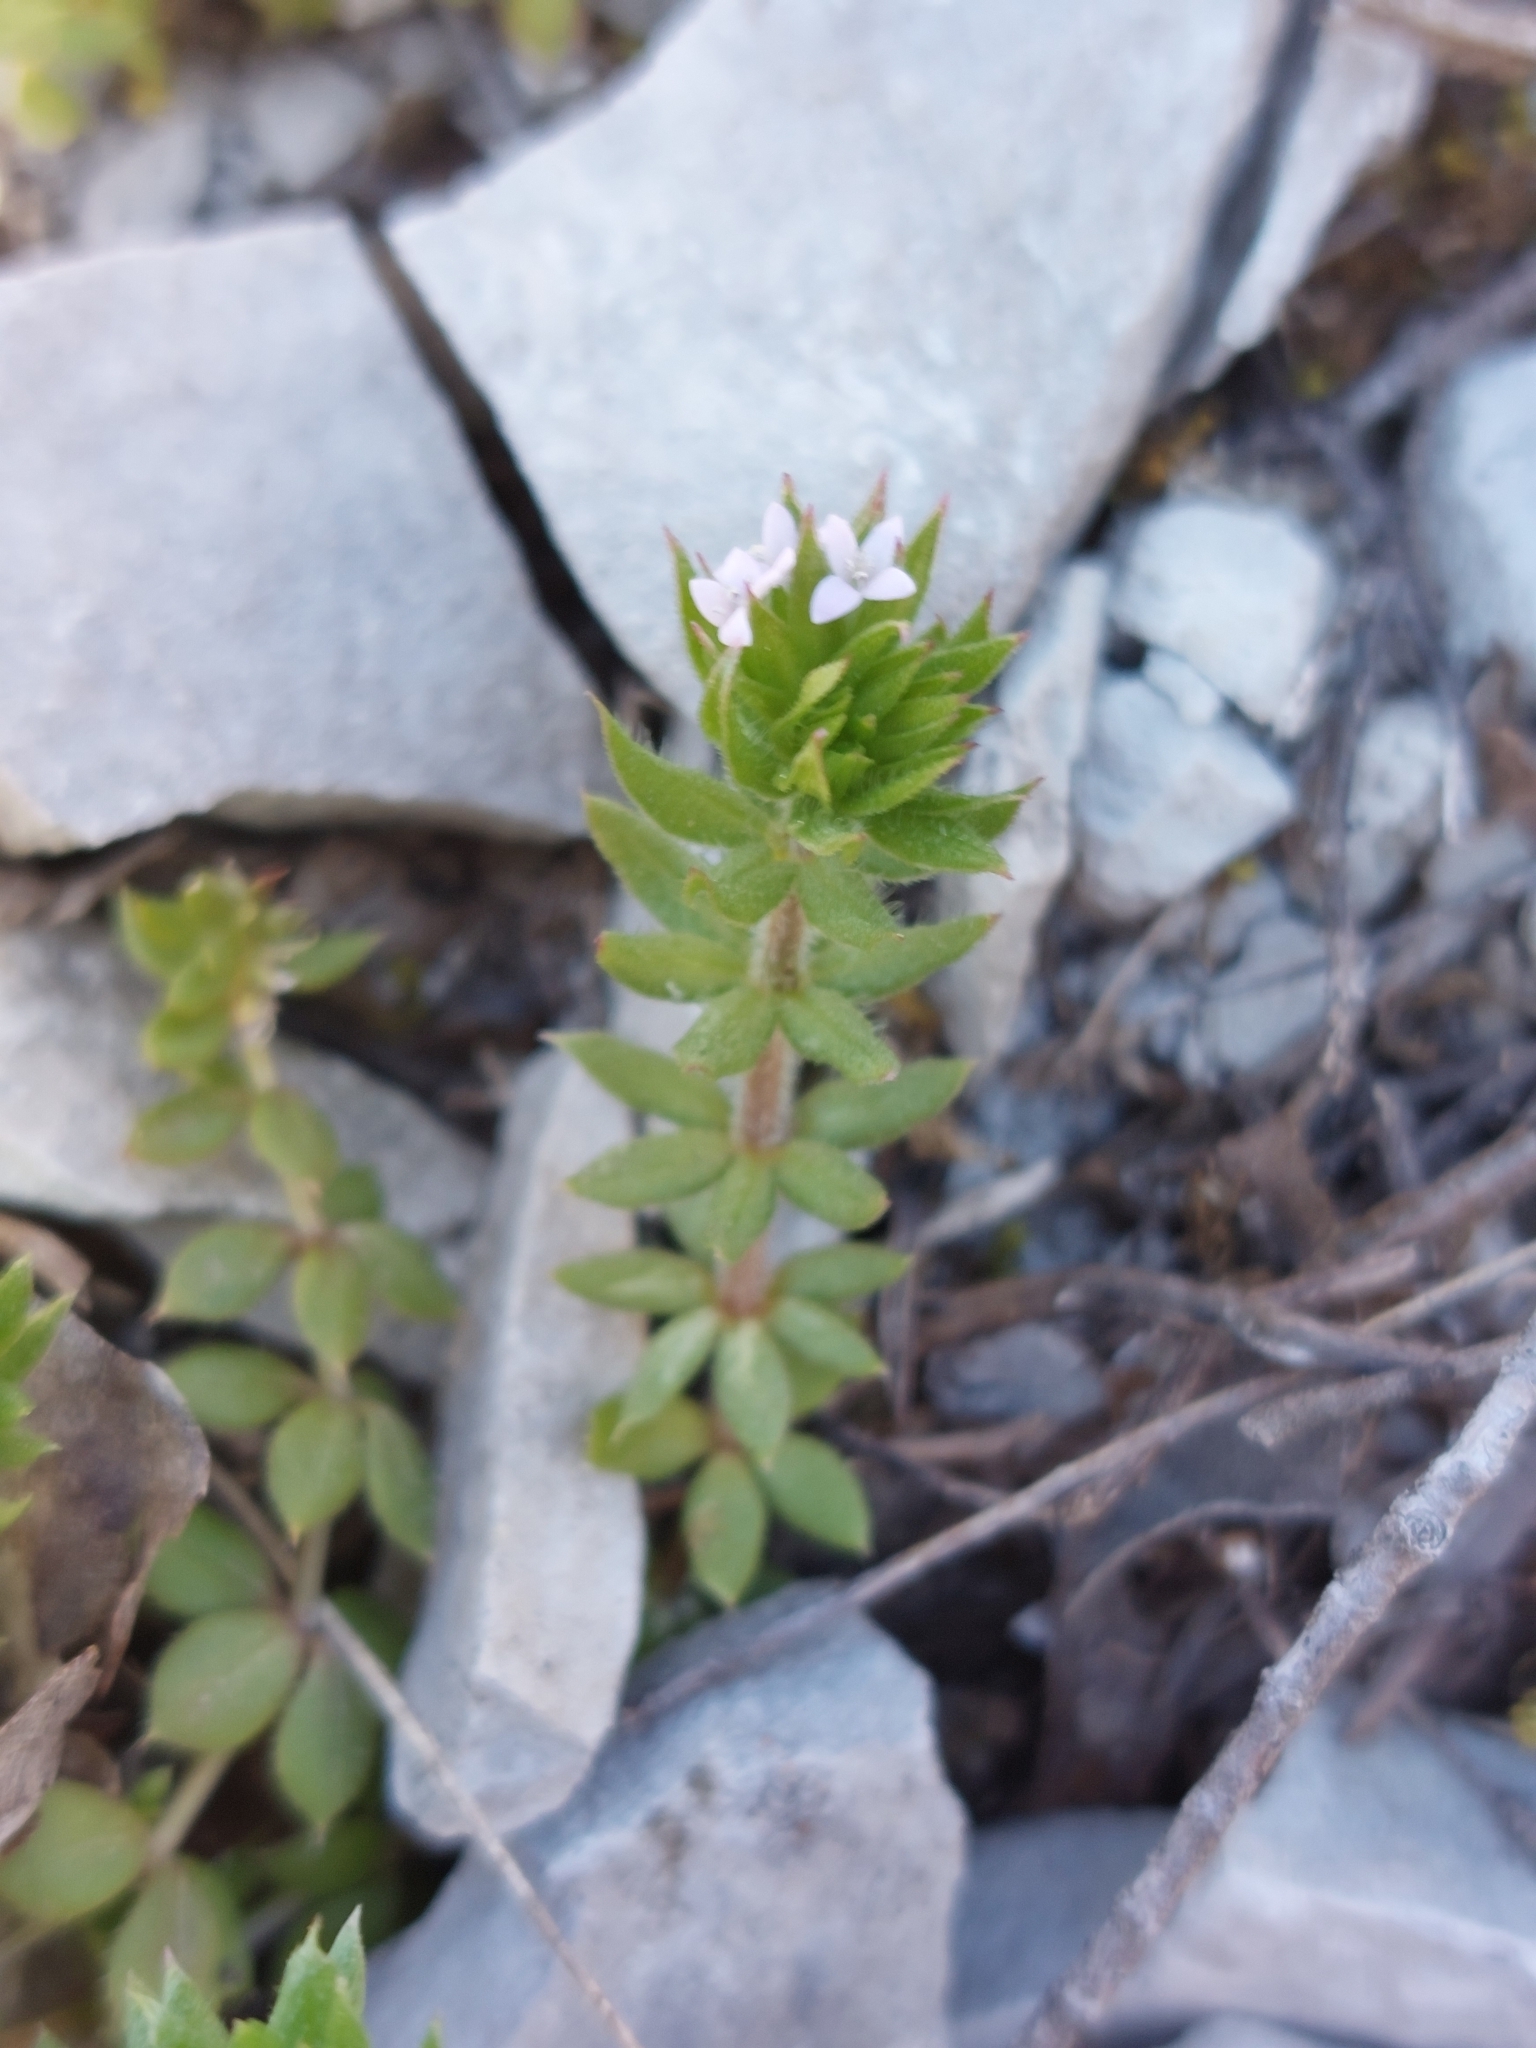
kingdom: Plantae
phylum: Tracheophyta
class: Magnoliopsida
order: Gentianales
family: Rubiaceae
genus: Sherardia
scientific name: Sherardia arvensis
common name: Field madder
